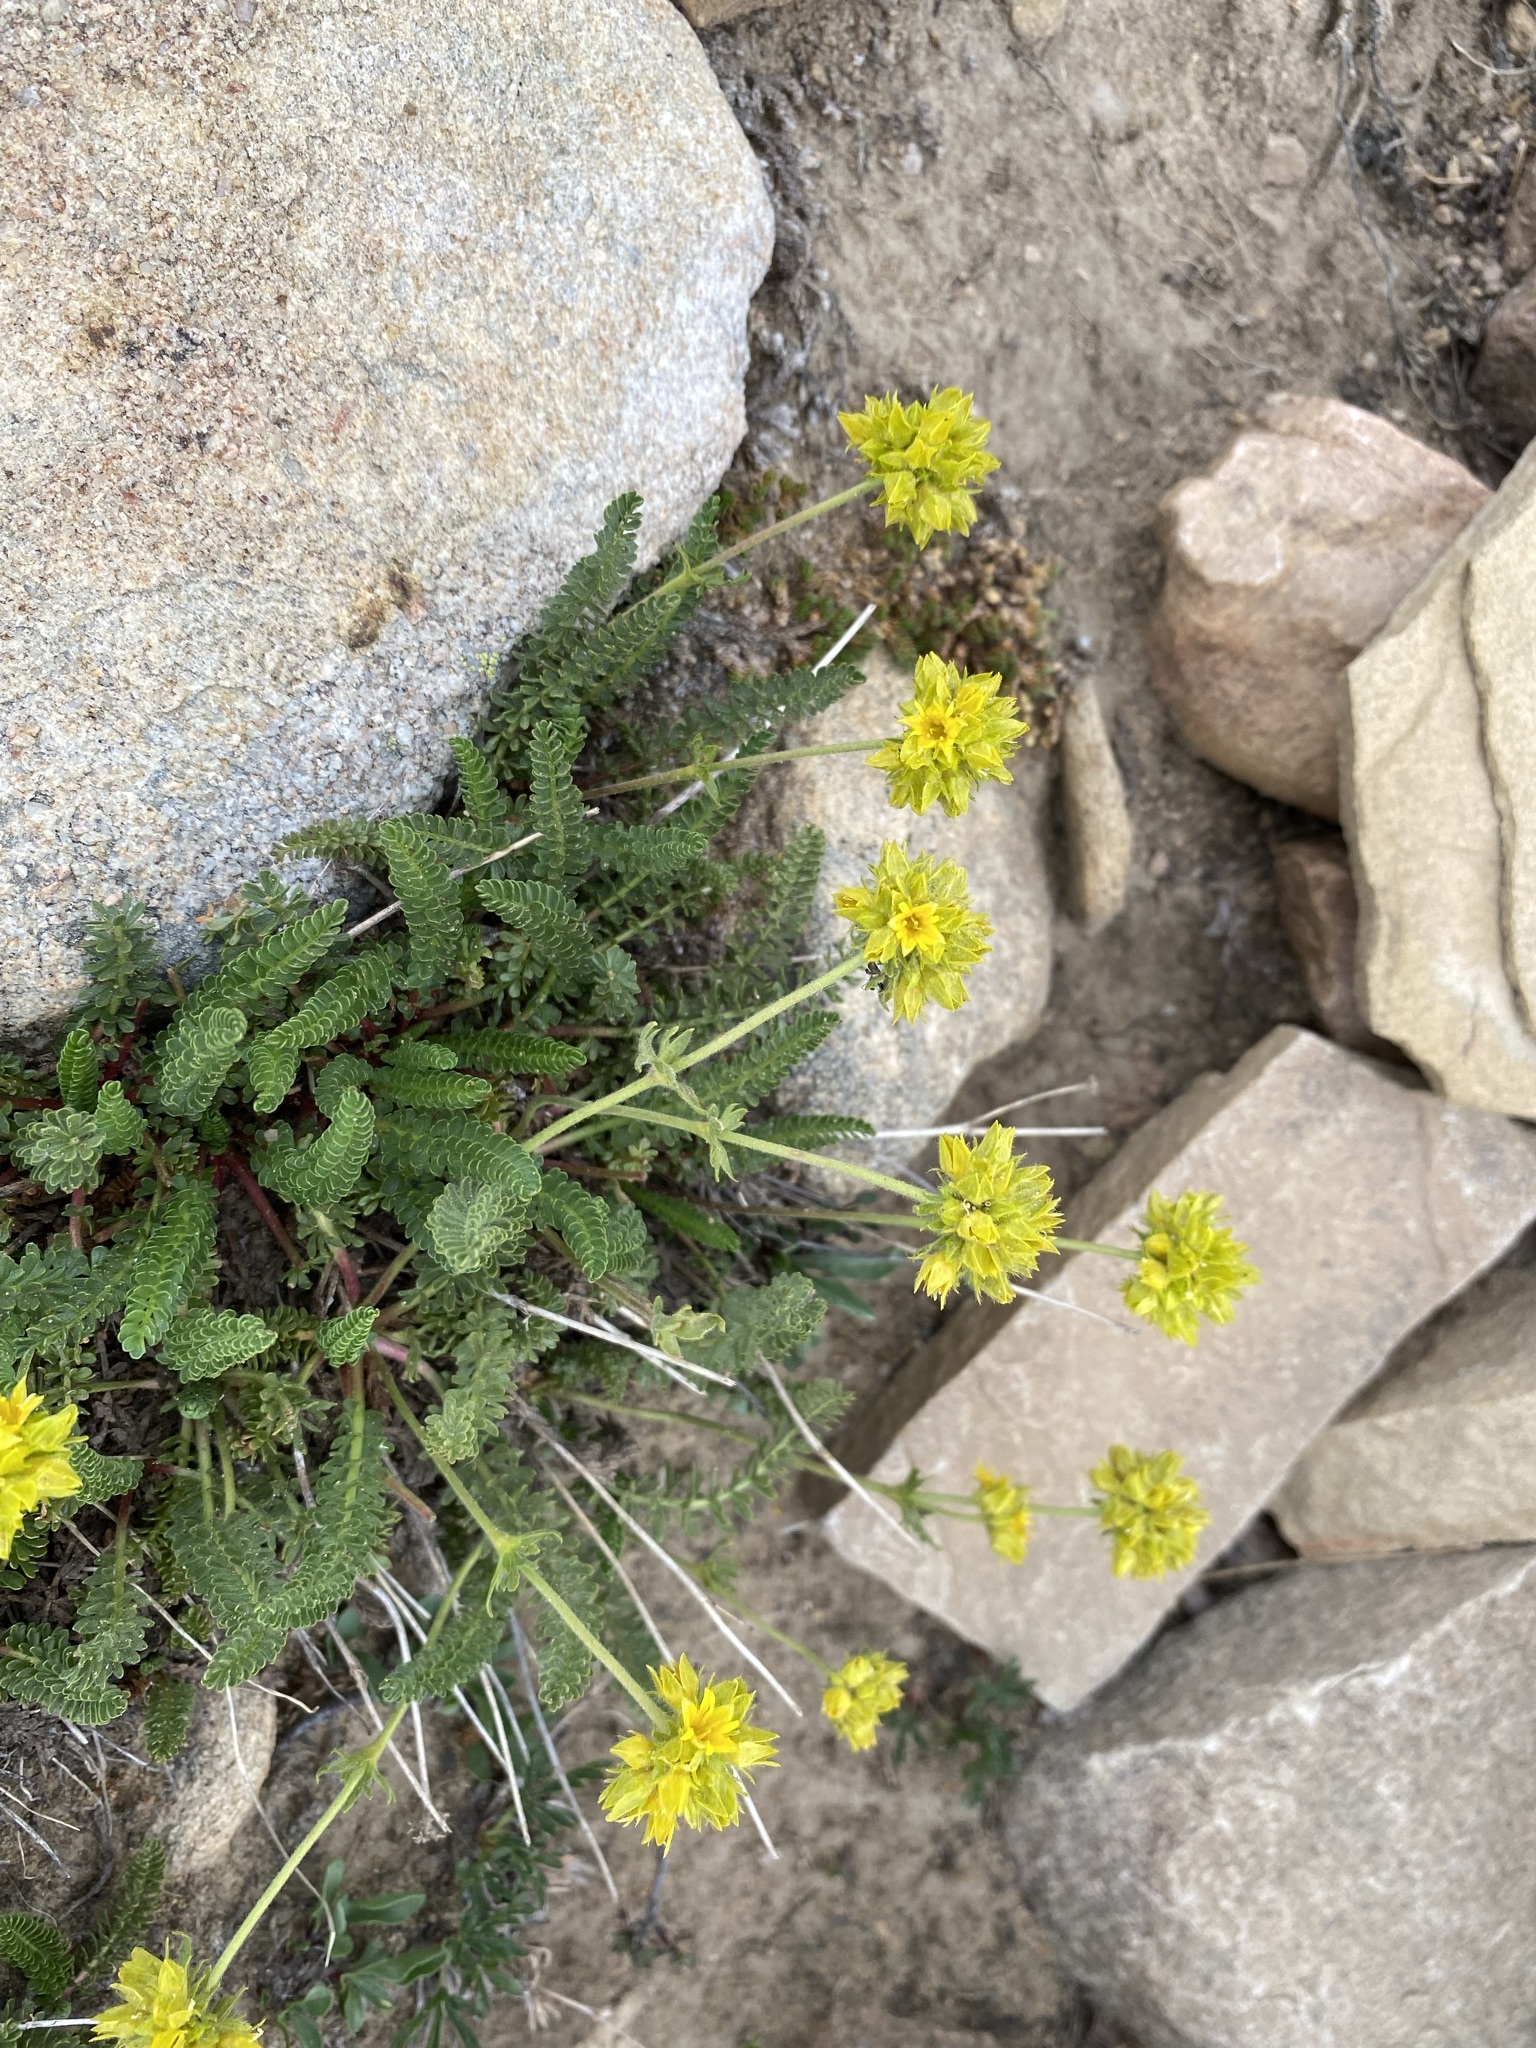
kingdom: Plantae
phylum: Tracheophyta
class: Magnoliopsida
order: Rosales
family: Rosaceae
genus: Potentilla
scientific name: Potentilla gordonii
